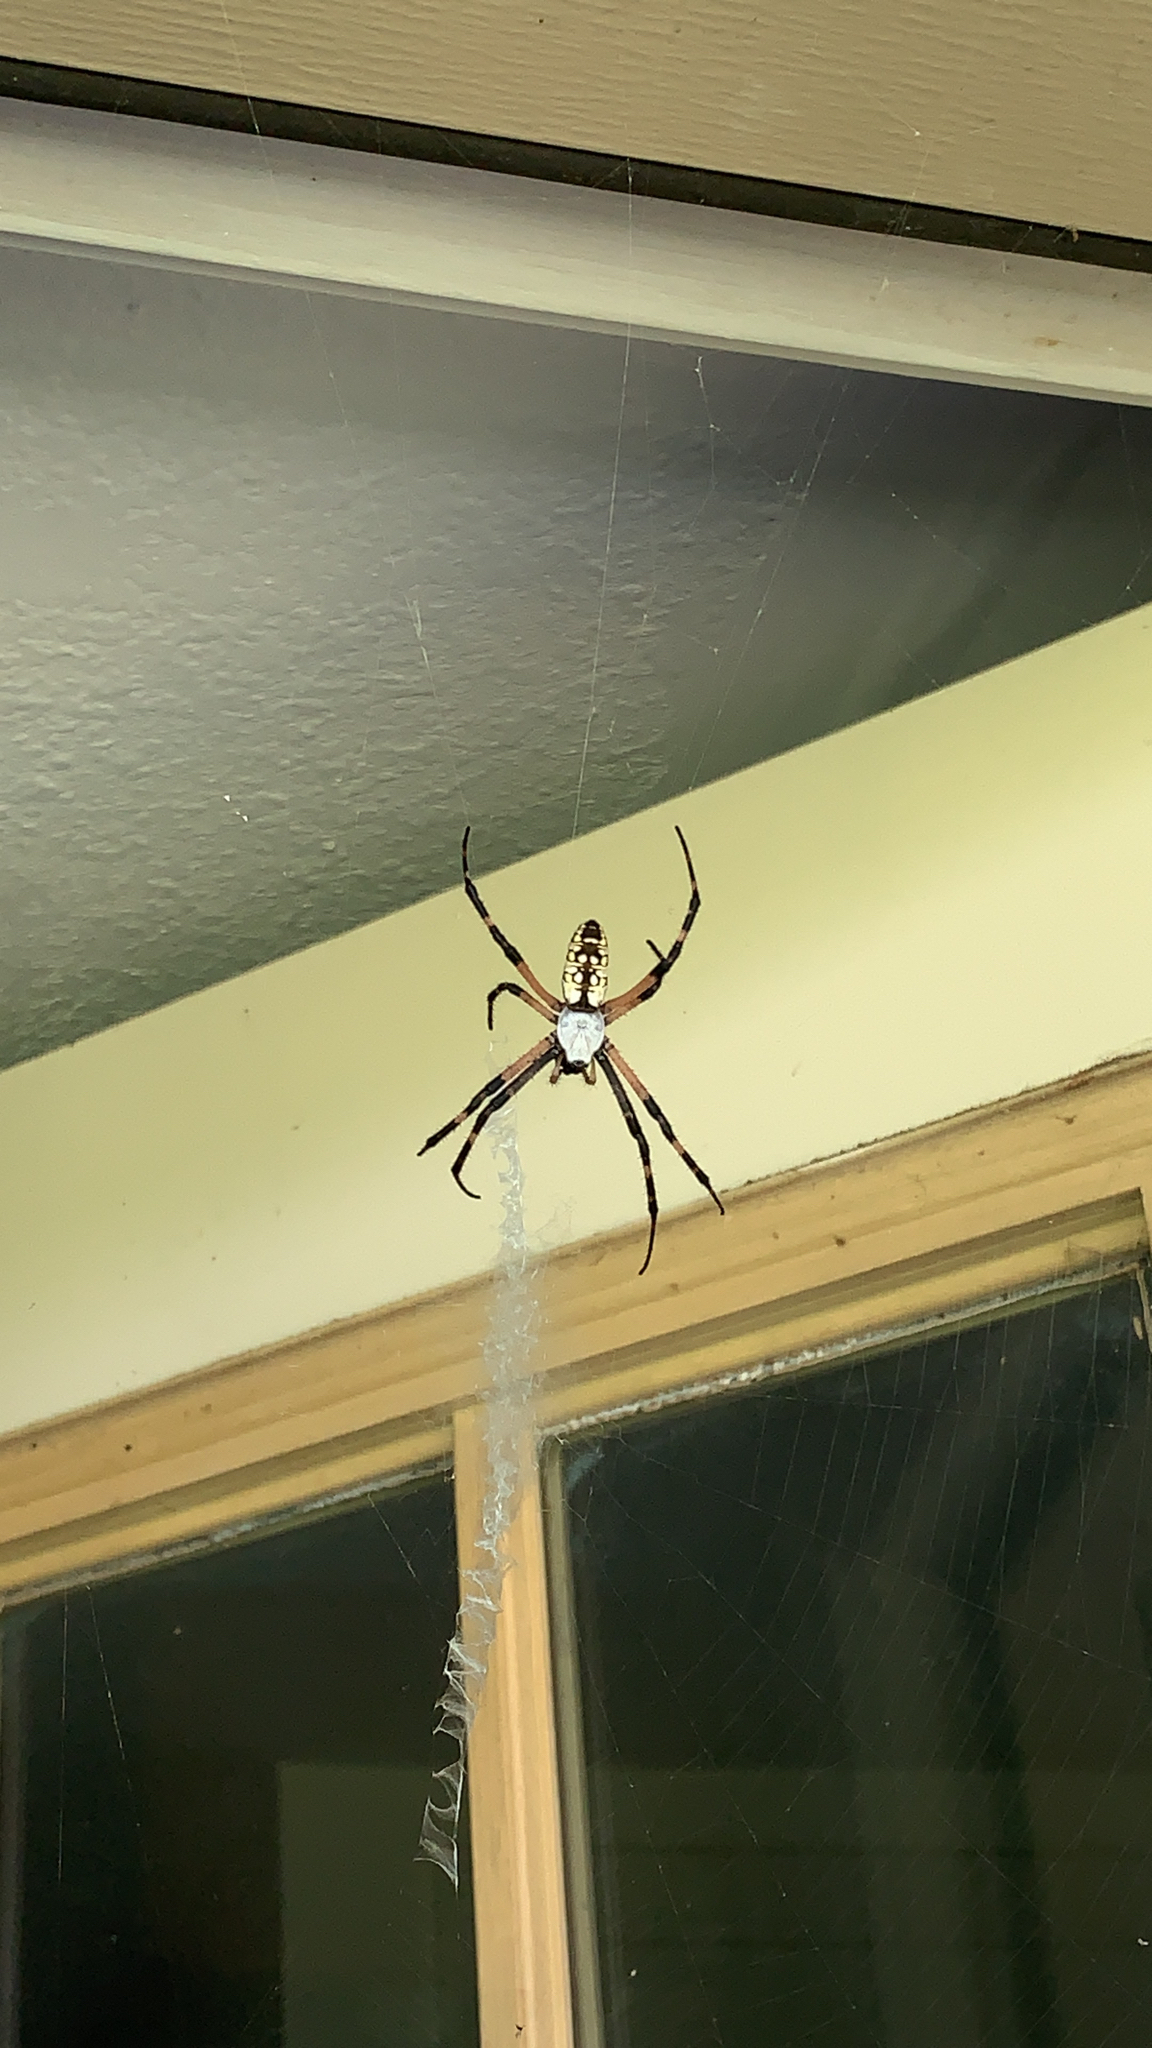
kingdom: Animalia
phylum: Arthropoda
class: Arachnida
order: Araneae
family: Araneidae
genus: Argiope
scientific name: Argiope aurantia
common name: Orb weavers
